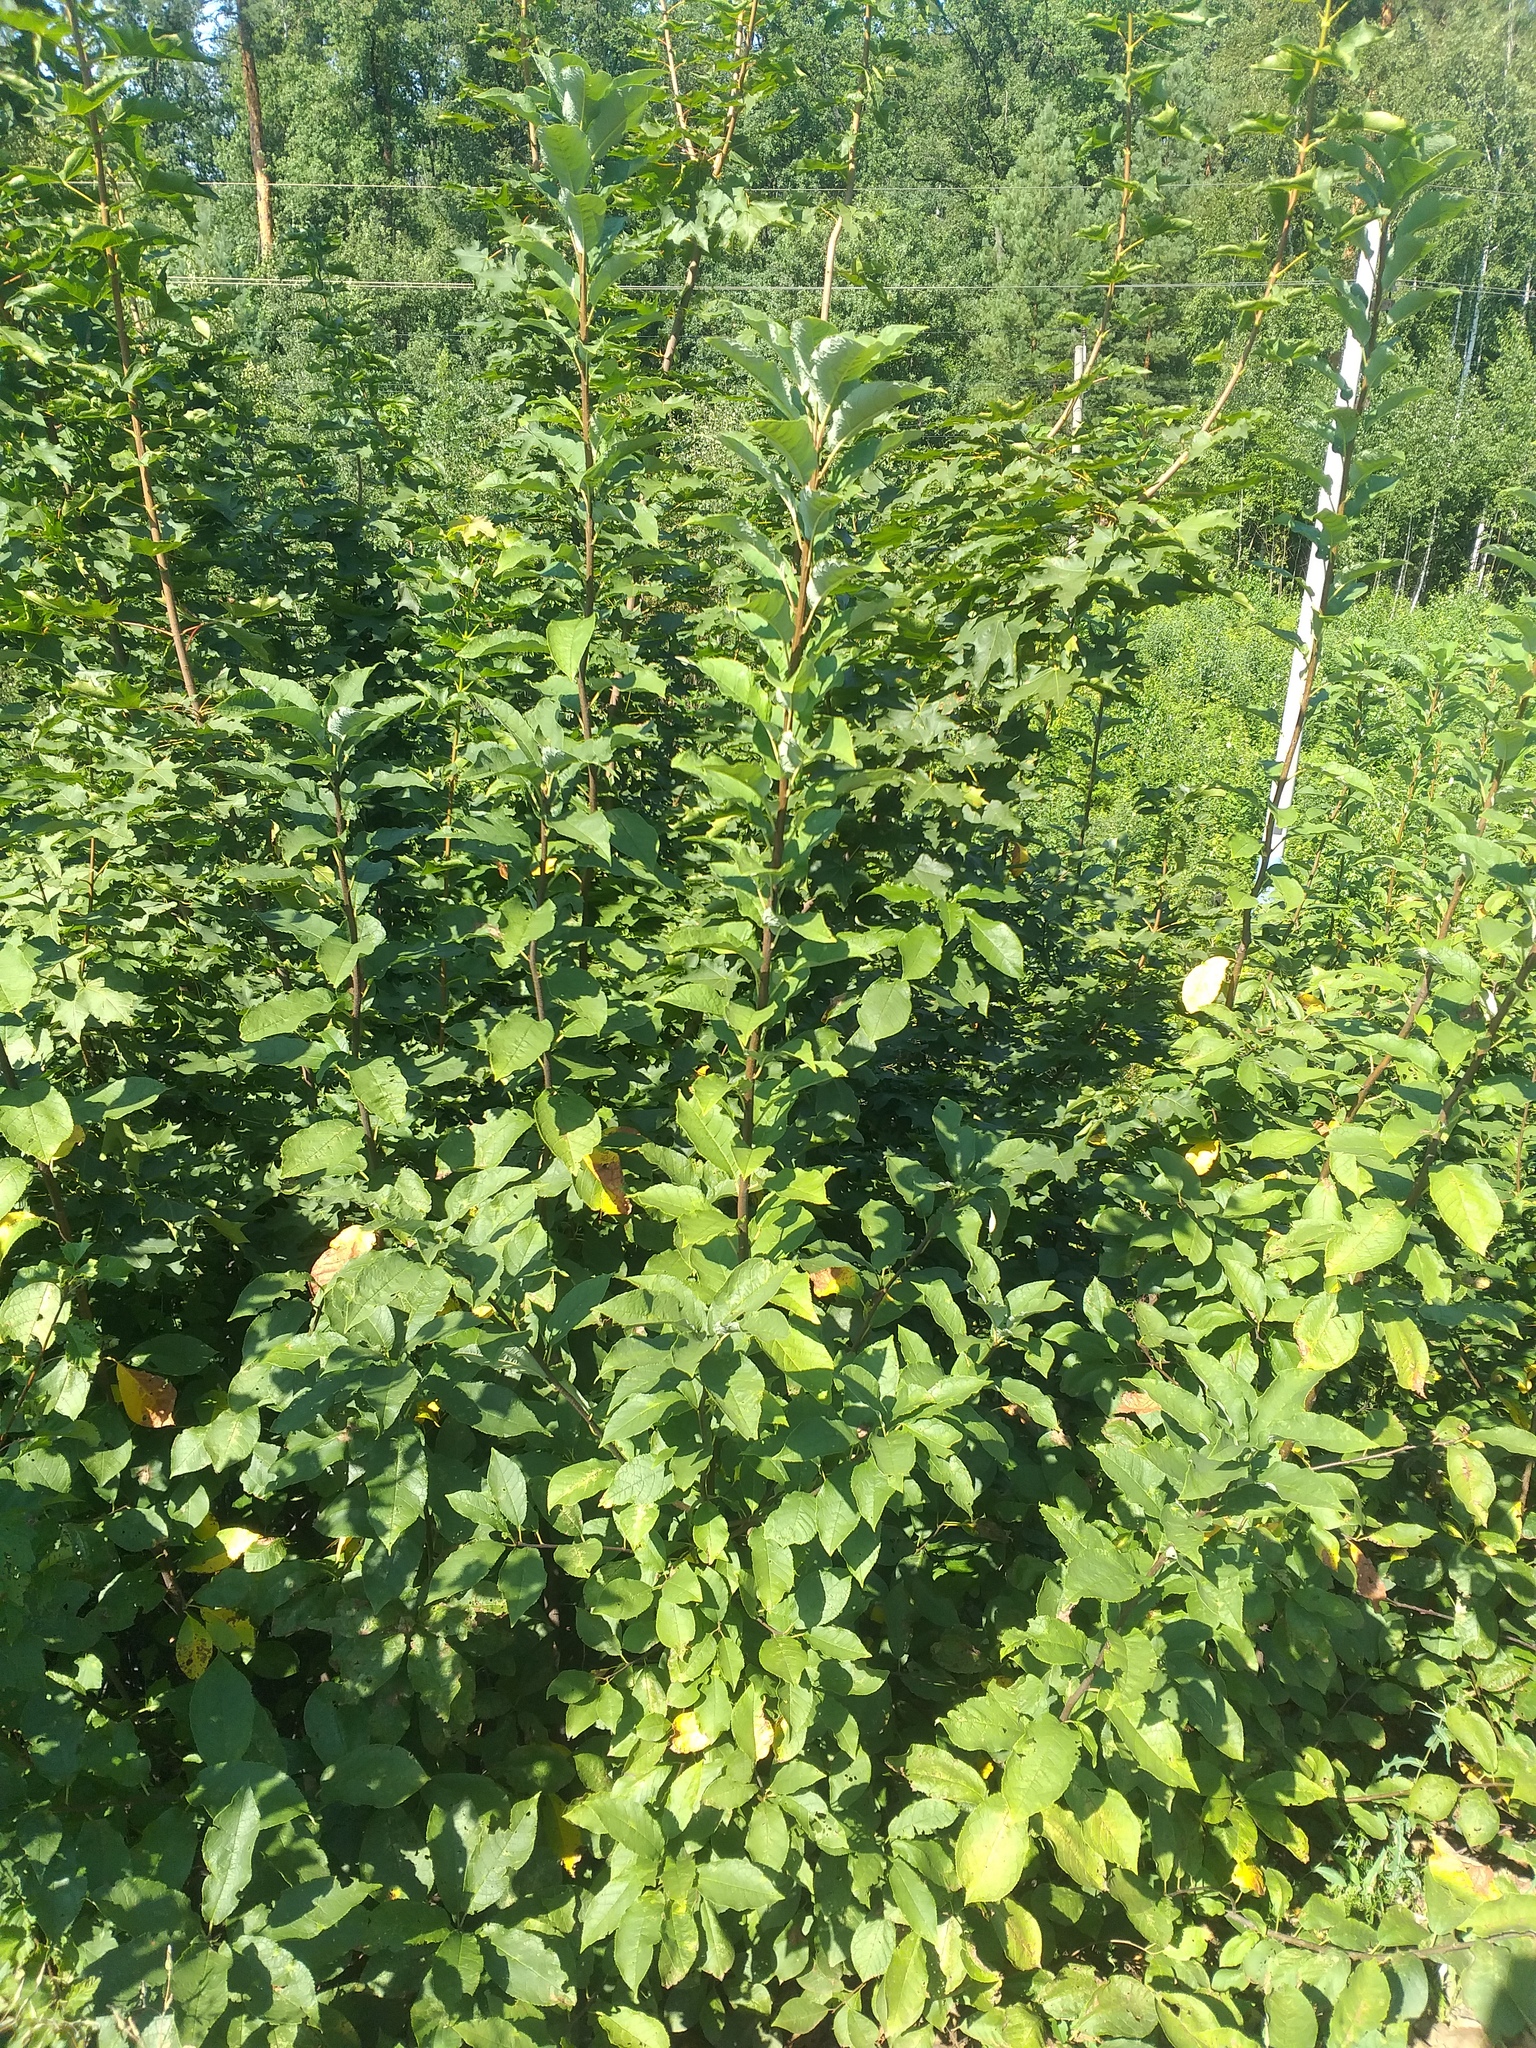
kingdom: Plantae
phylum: Tracheophyta
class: Magnoliopsida
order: Rosales
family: Rosaceae
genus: Prunus
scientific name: Prunus virginiana
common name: Chokecherry
